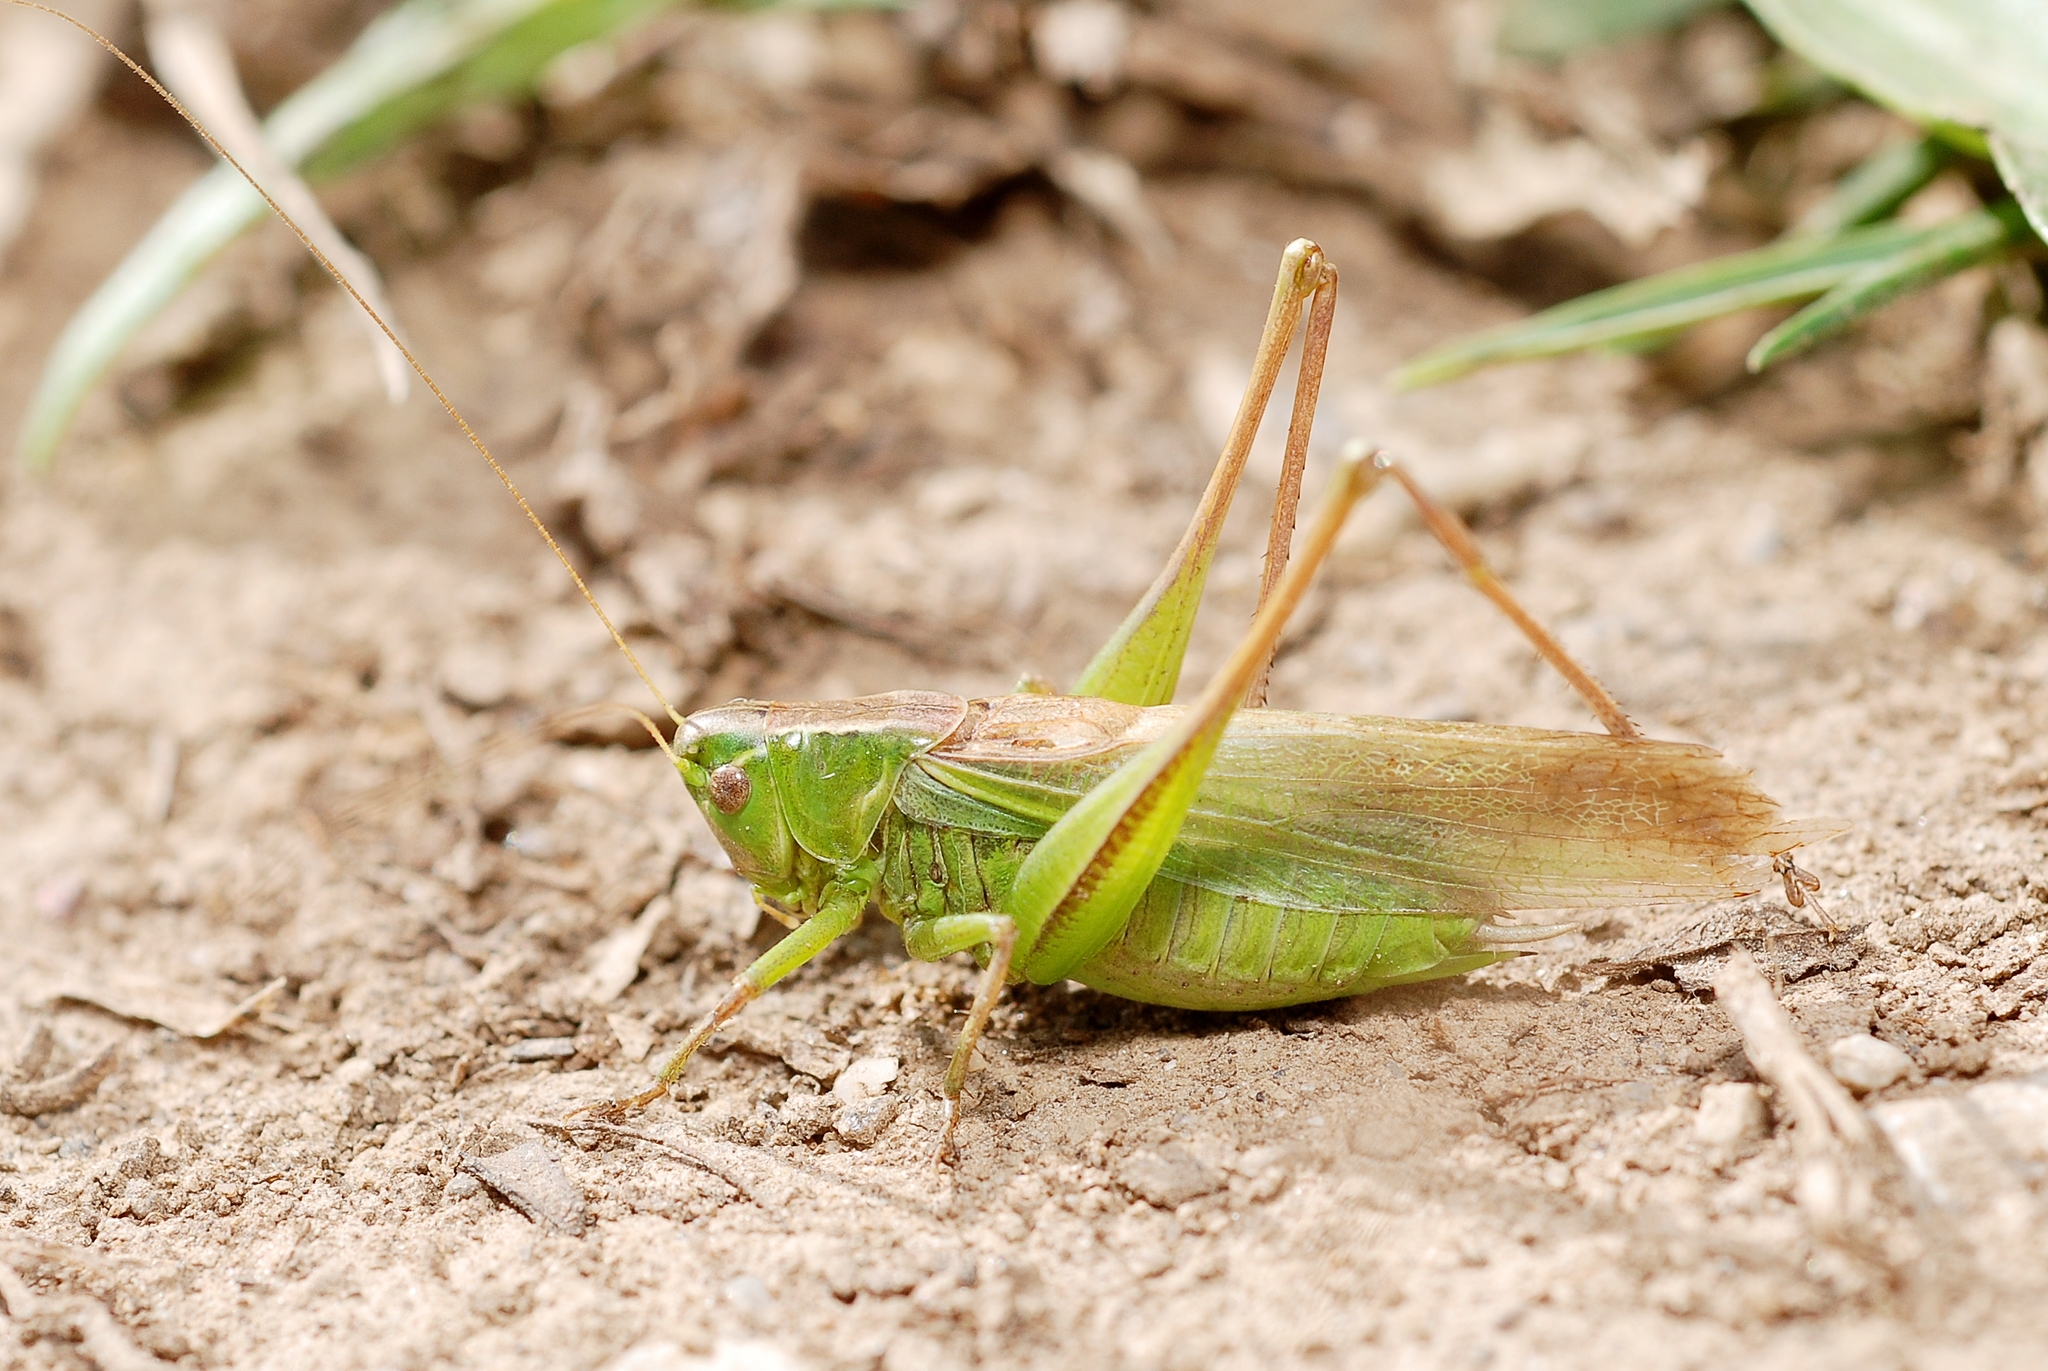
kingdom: Animalia
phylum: Arthropoda
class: Insecta
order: Orthoptera
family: Tettigoniidae
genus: Bicolorana
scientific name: Bicolorana bicolor
